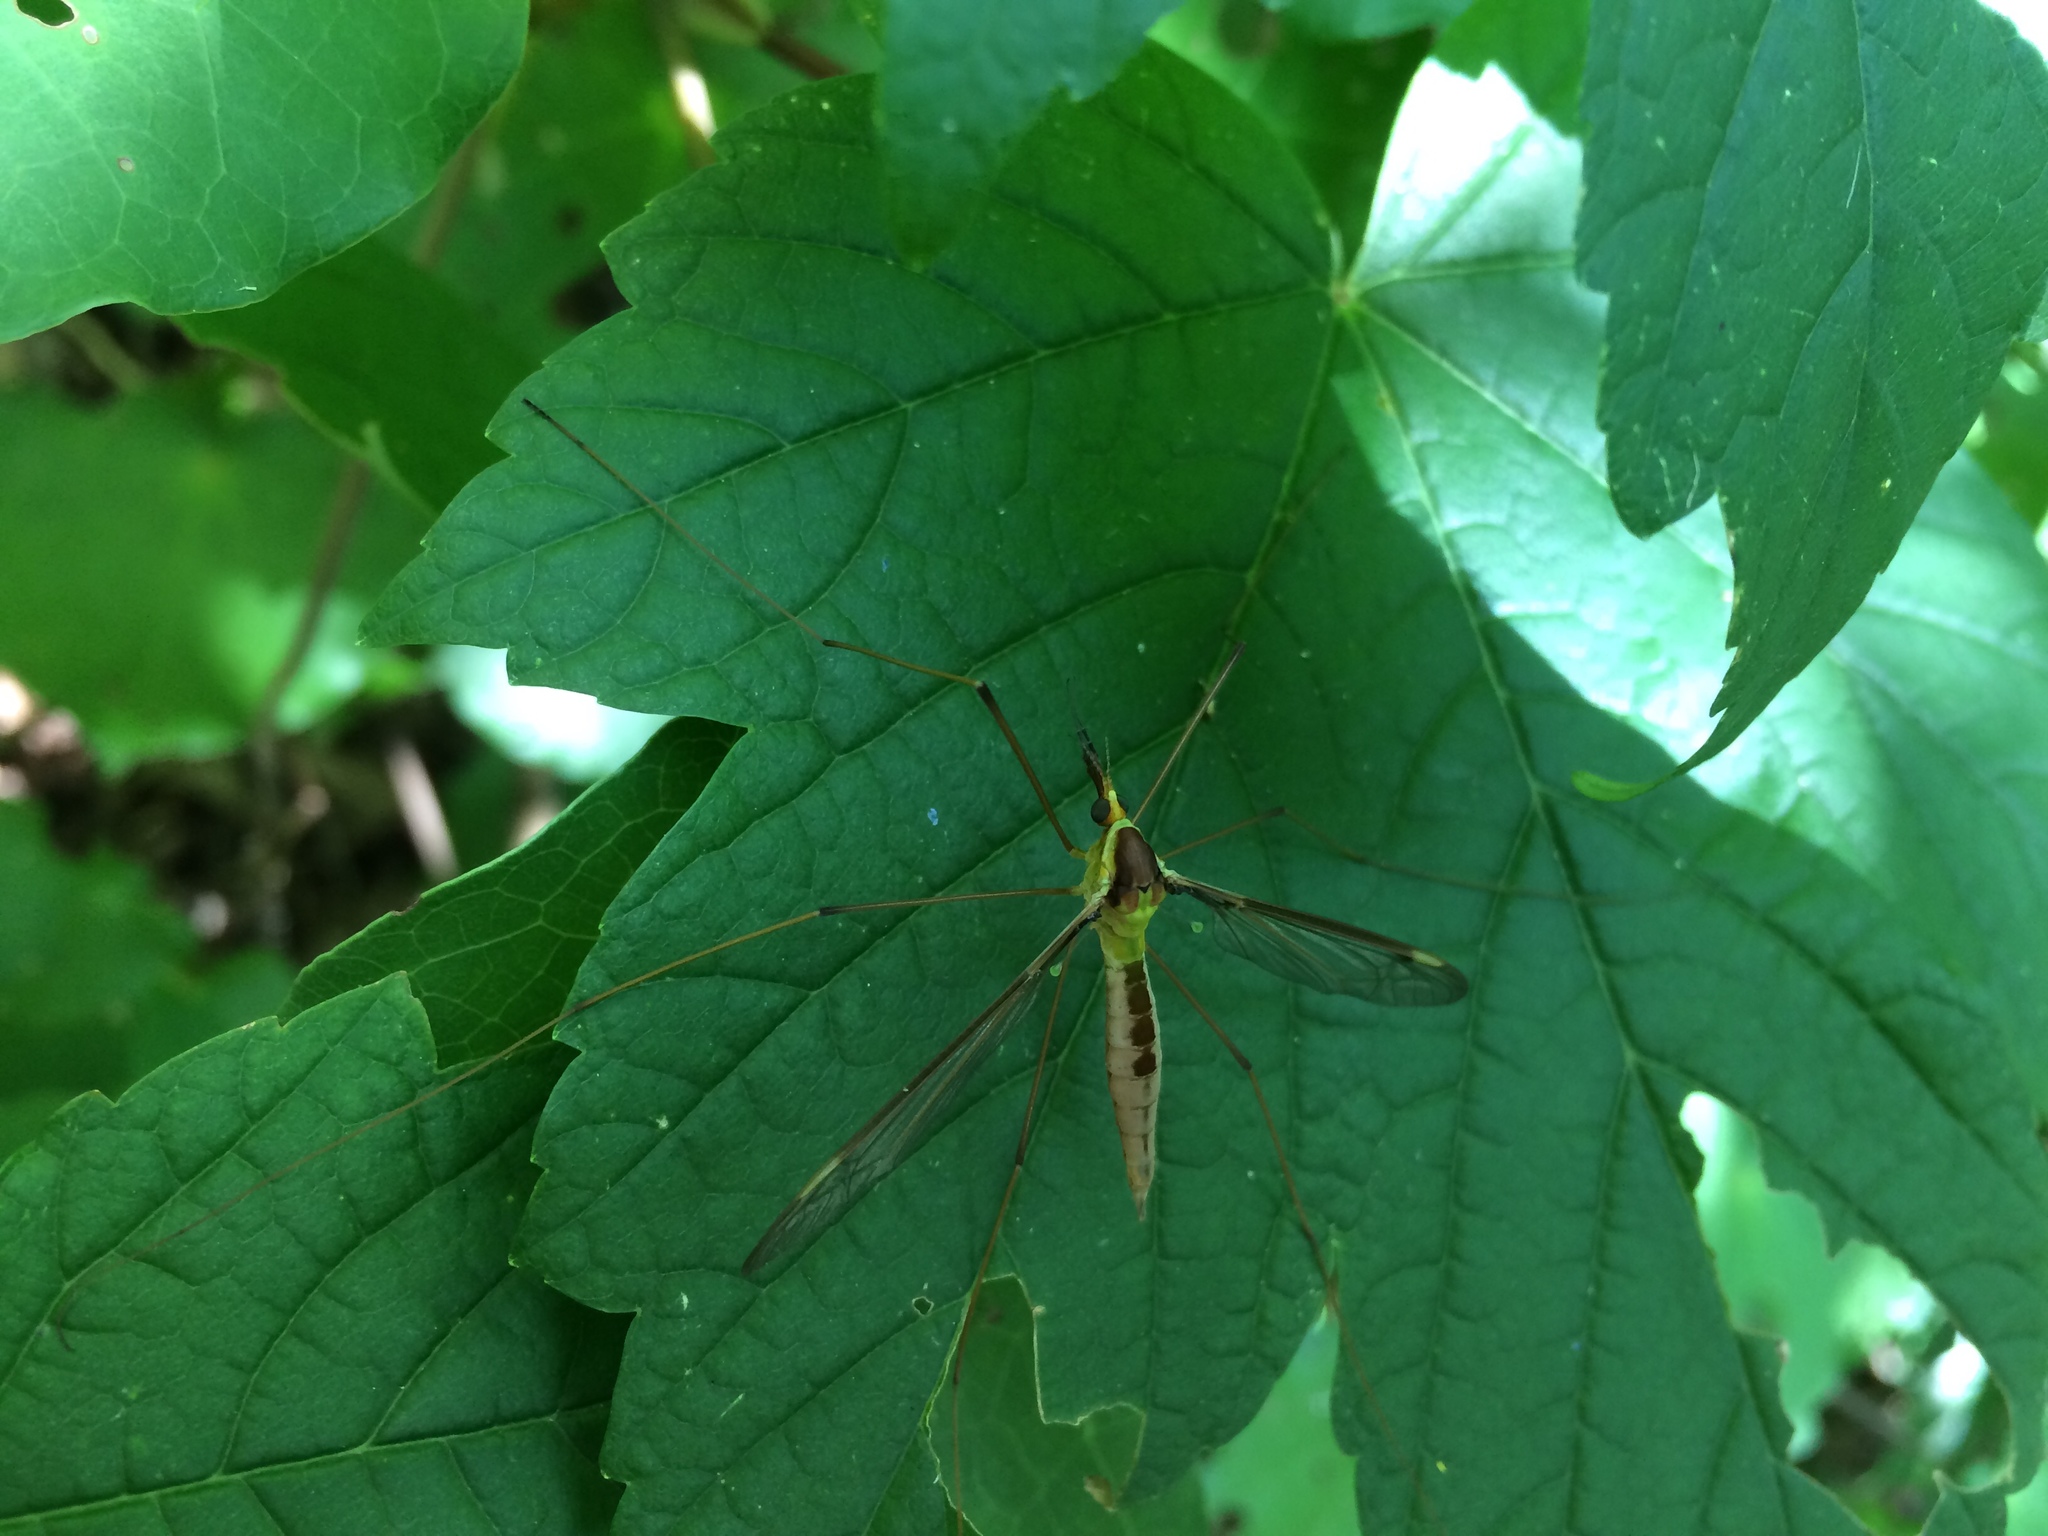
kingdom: Animalia
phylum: Arthropoda
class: Insecta
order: Diptera
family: Tipulidae
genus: Leptotarsus
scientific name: Leptotarsus albistigma
